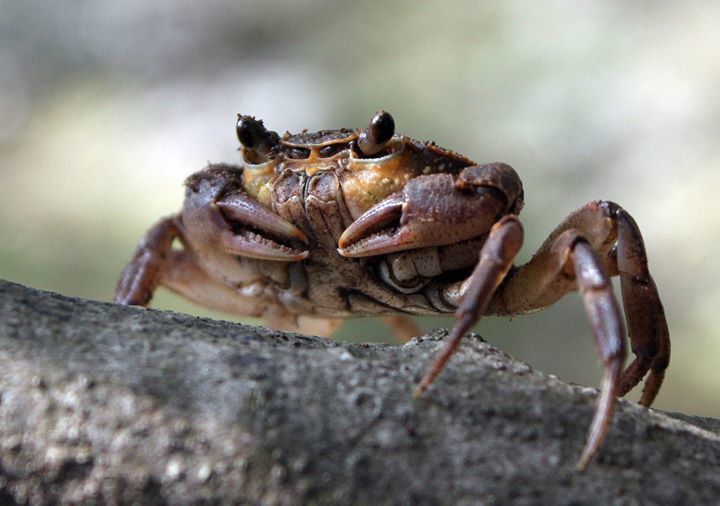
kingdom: Animalia
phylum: Arthropoda
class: Malacostraca
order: Decapoda
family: Potamidae
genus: Potamon
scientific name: Potamon fluviatile
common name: Italian freshwater crab
